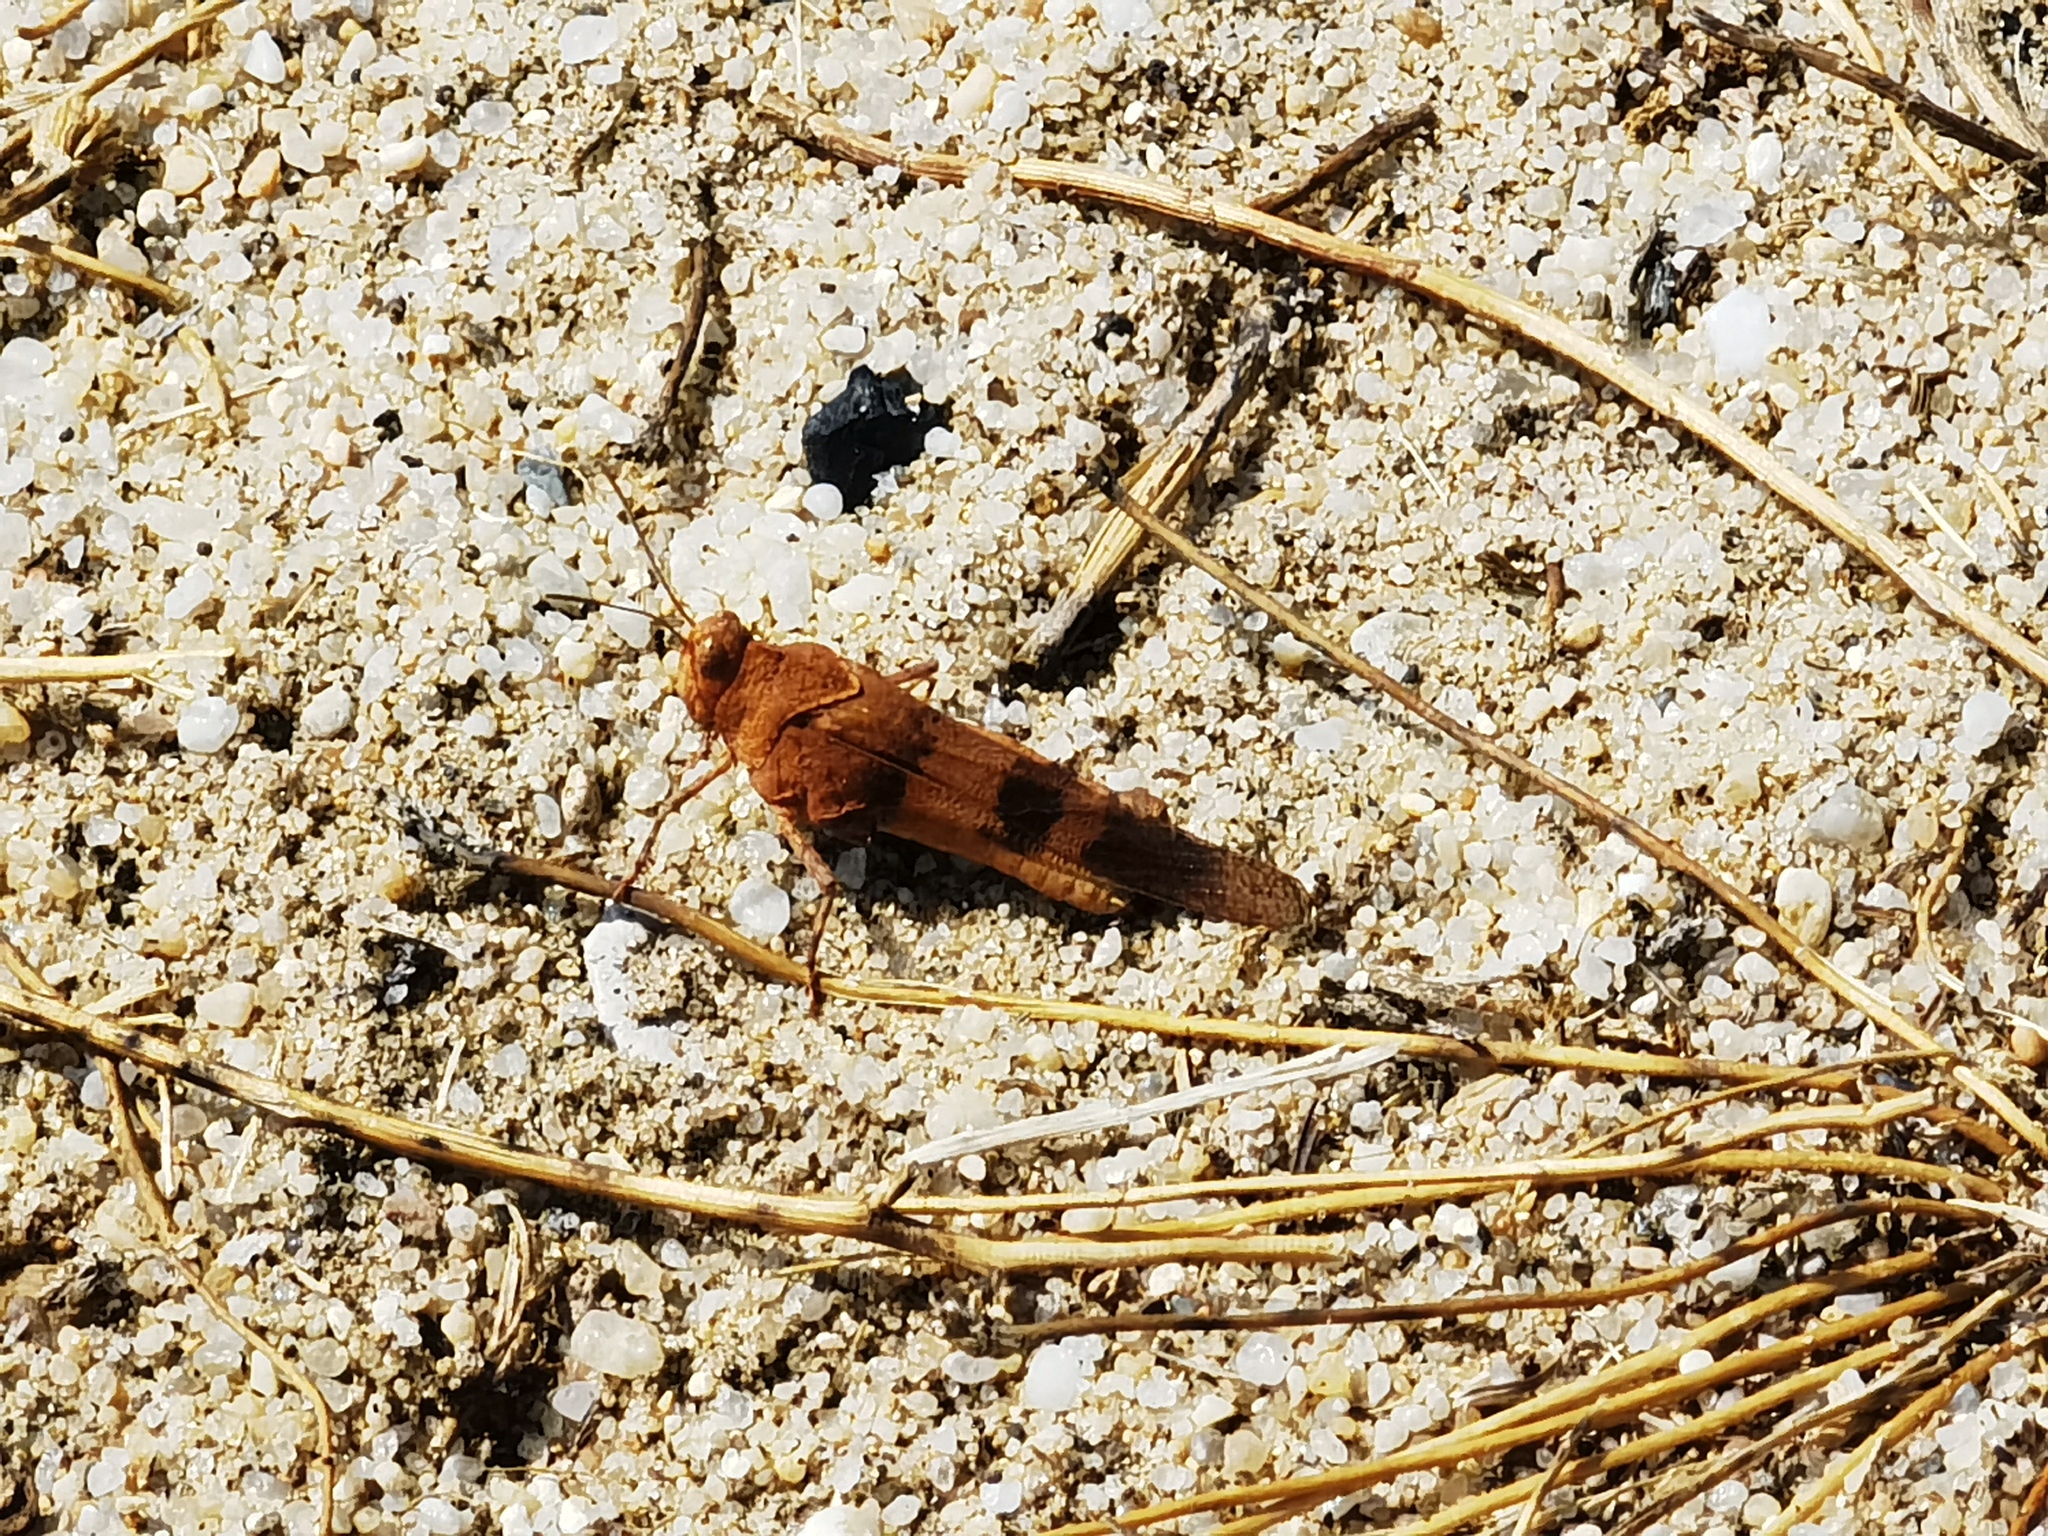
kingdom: Animalia
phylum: Arthropoda
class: Insecta
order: Orthoptera
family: Acrididae
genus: Oedipoda
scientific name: Oedipoda caerulescens
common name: Blue-winged grasshopper
